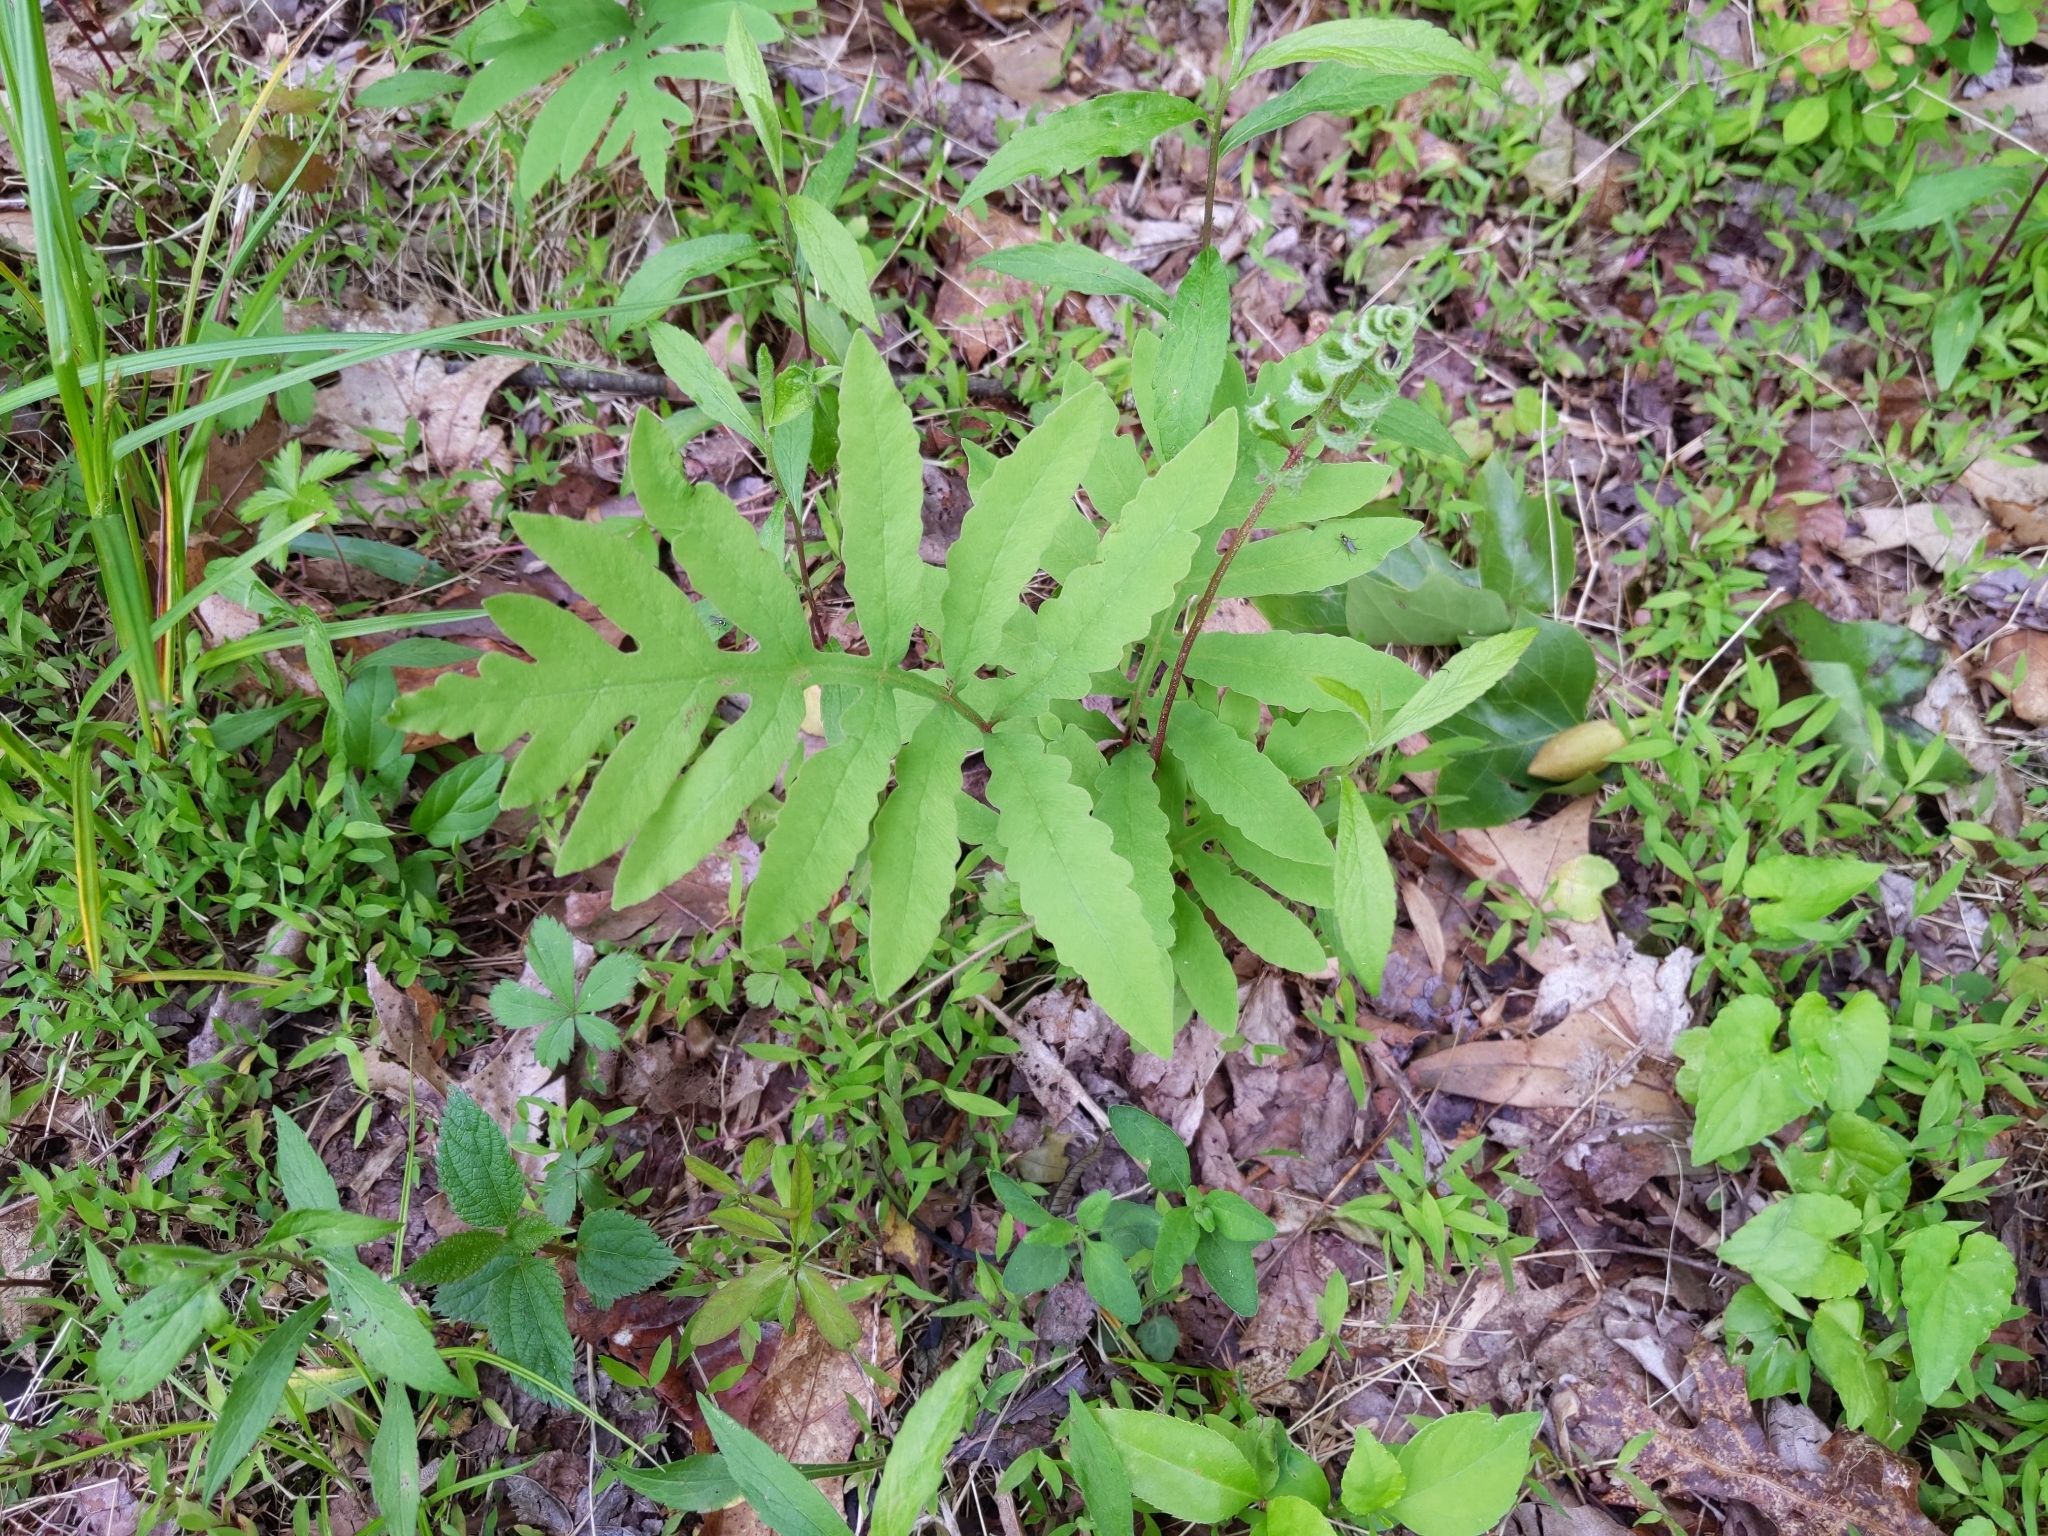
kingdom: Plantae
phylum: Tracheophyta
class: Polypodiopsida
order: Polypodiales
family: Onocleaceae
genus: Onoclea
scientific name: Onoclea sensibilis
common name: Sensitive fern
